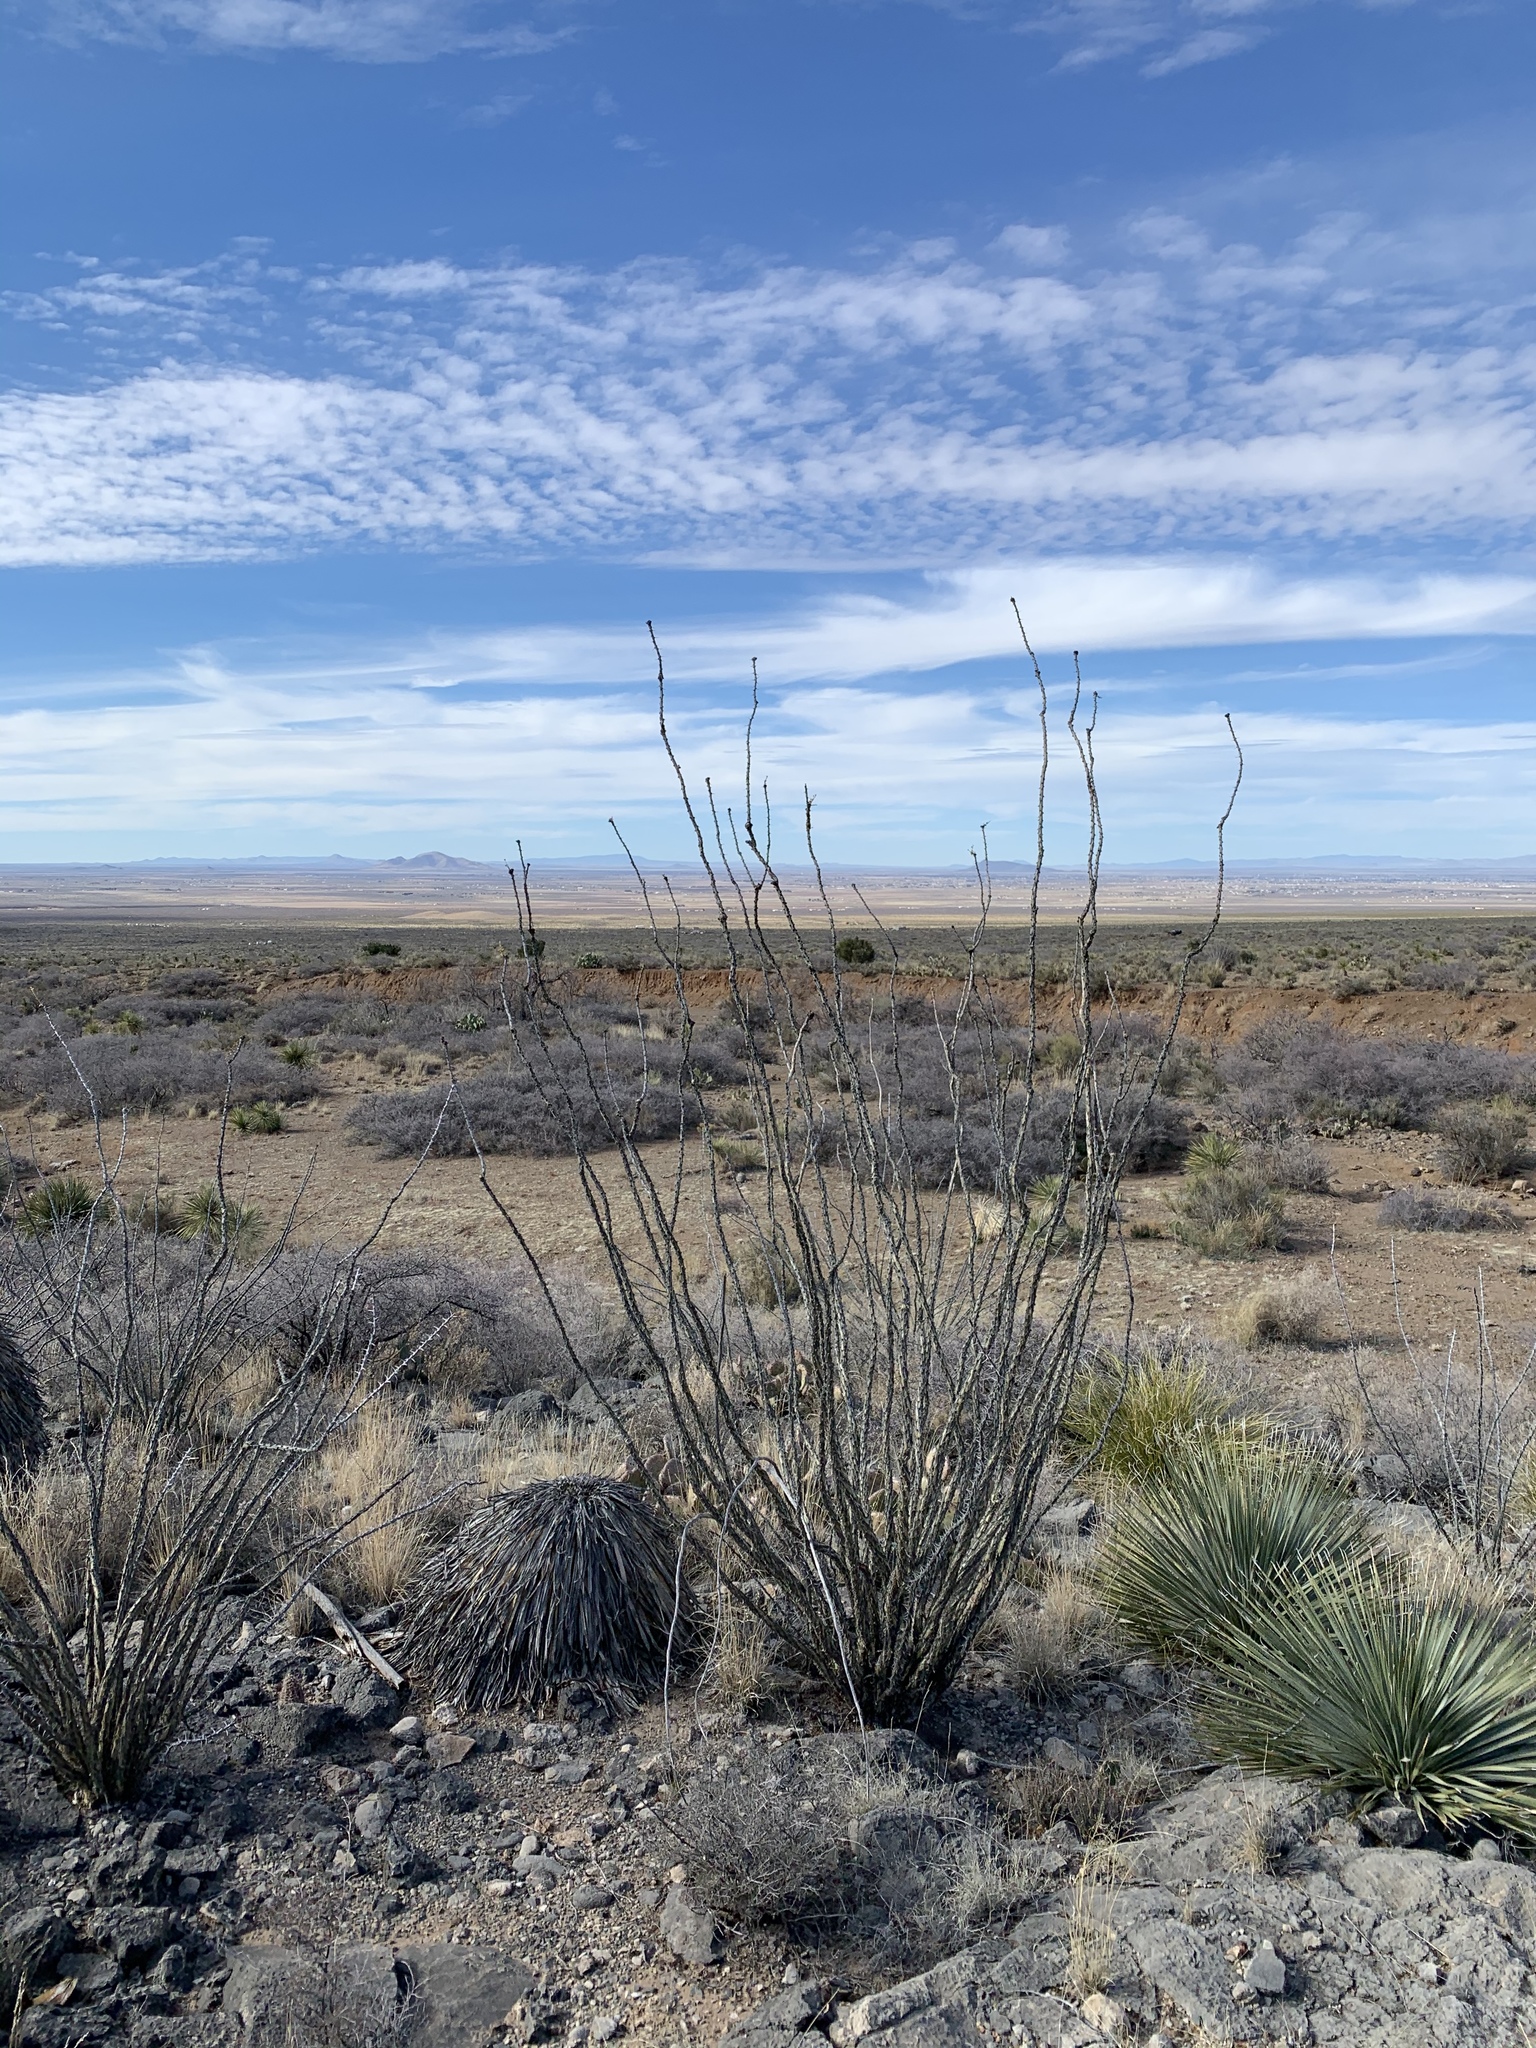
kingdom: Plantae
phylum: Tracheophyta
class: Magnoliopsida
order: Ericales
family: Fouquieriaceae
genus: Fouquieria
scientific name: Fouquieria splendens
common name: Vine-cactus
